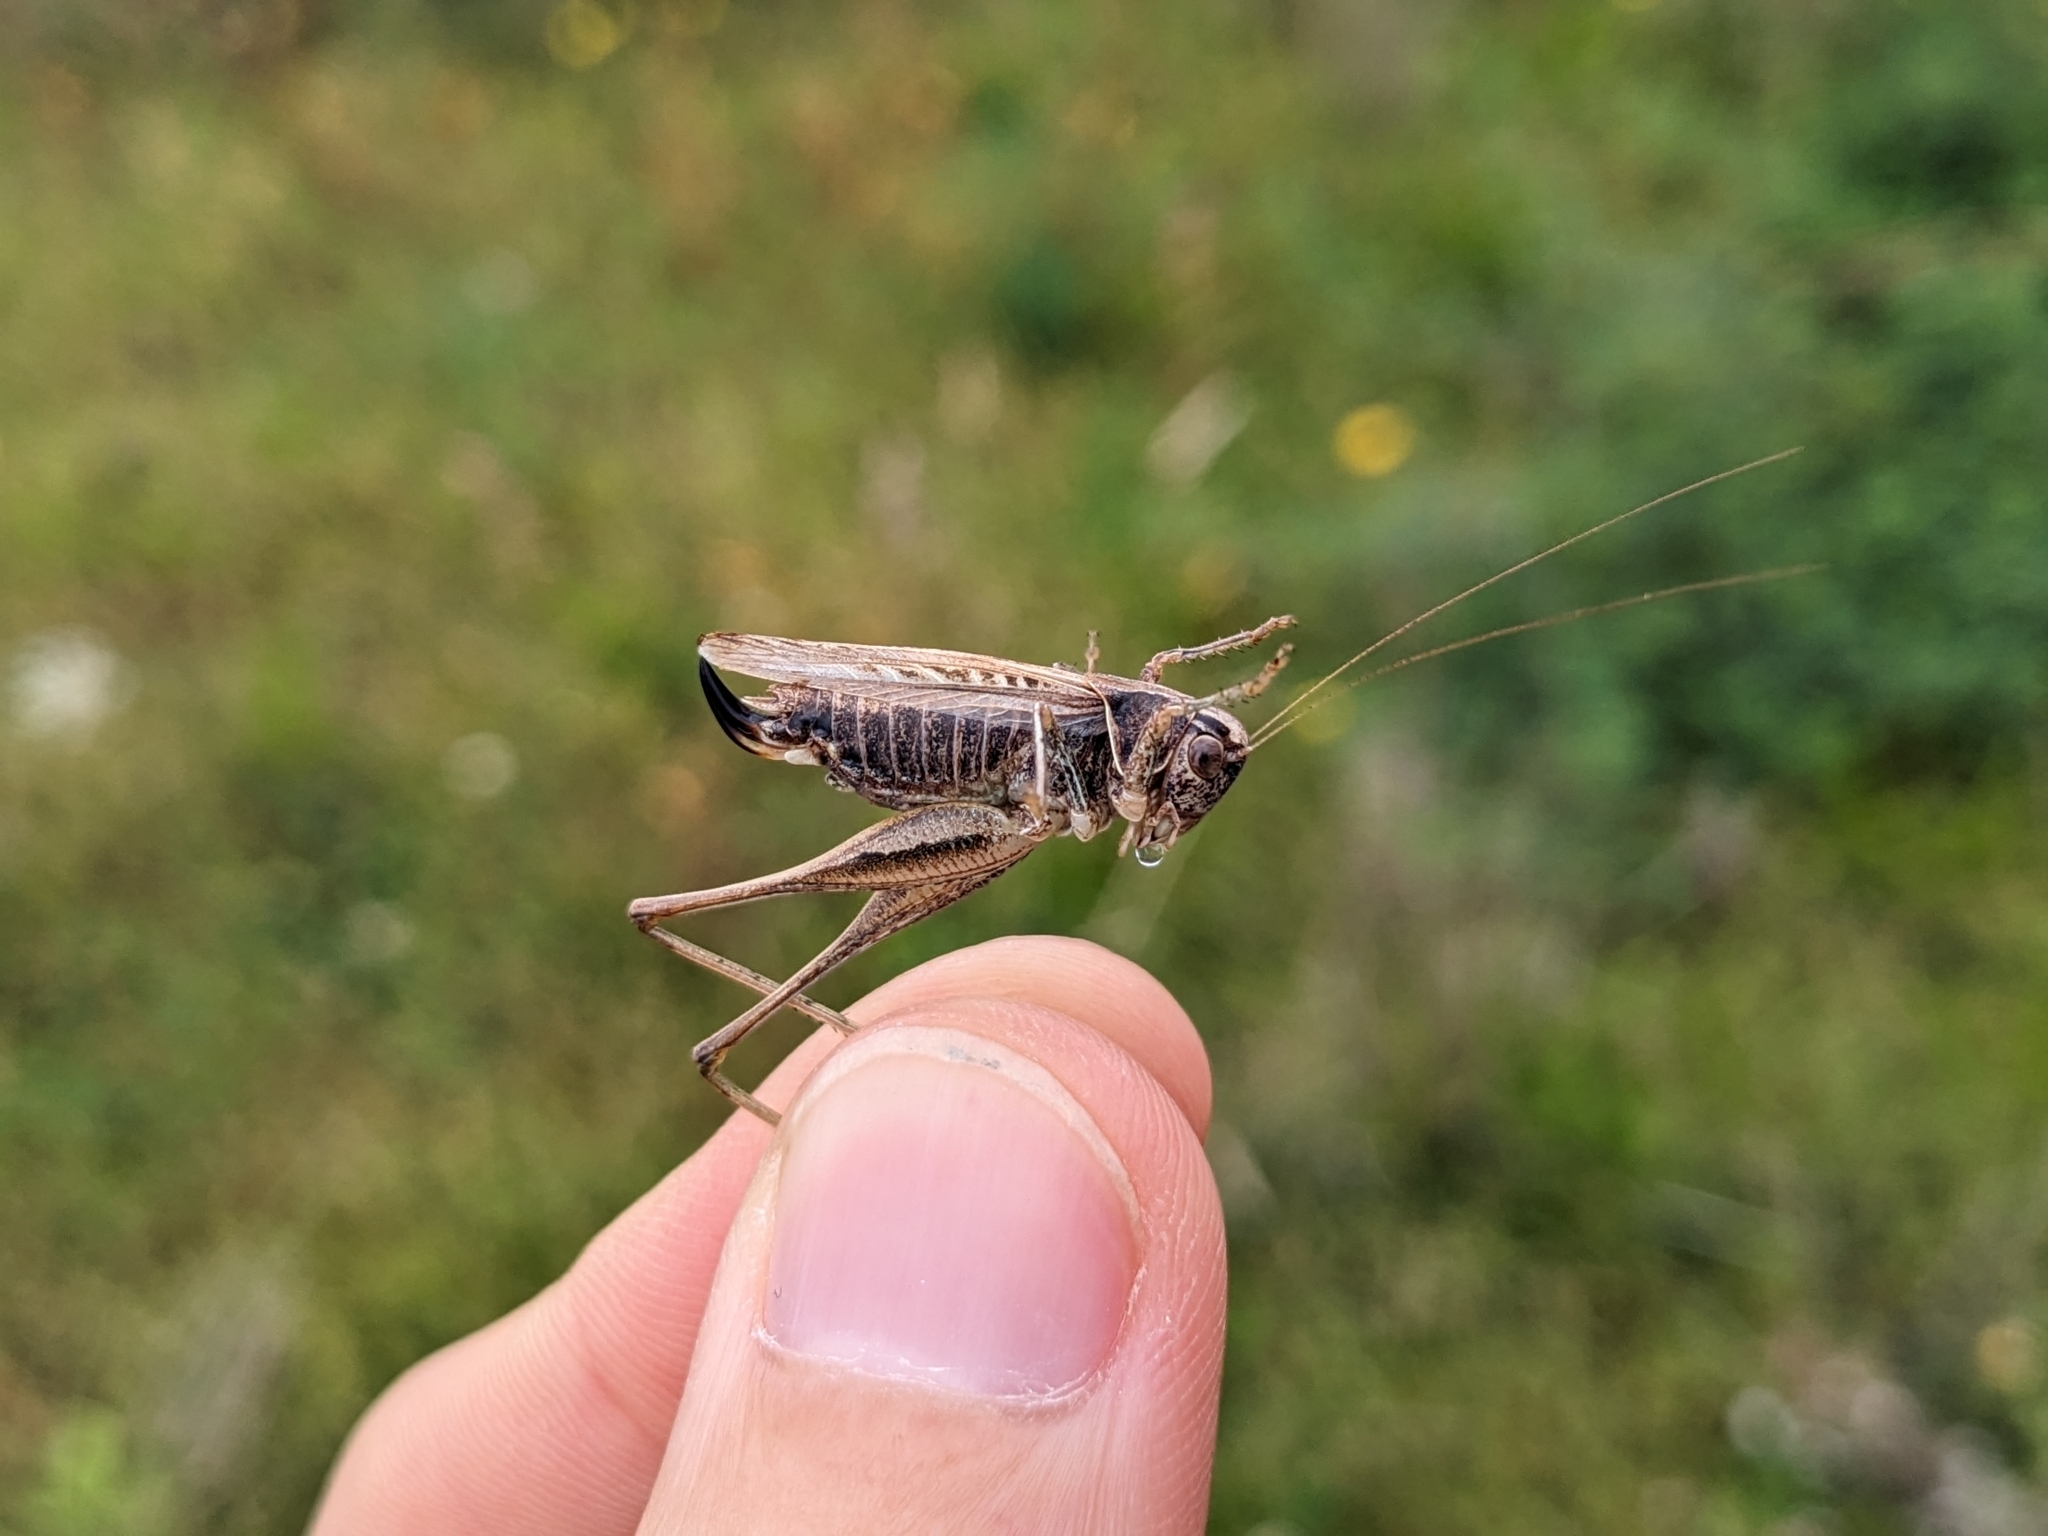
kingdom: Animalia
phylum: Arthropoda
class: Insecta
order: Orthoptera
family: Tettigoniidae
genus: Tessellana
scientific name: Tessellana tessellata
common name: Grasshopper
